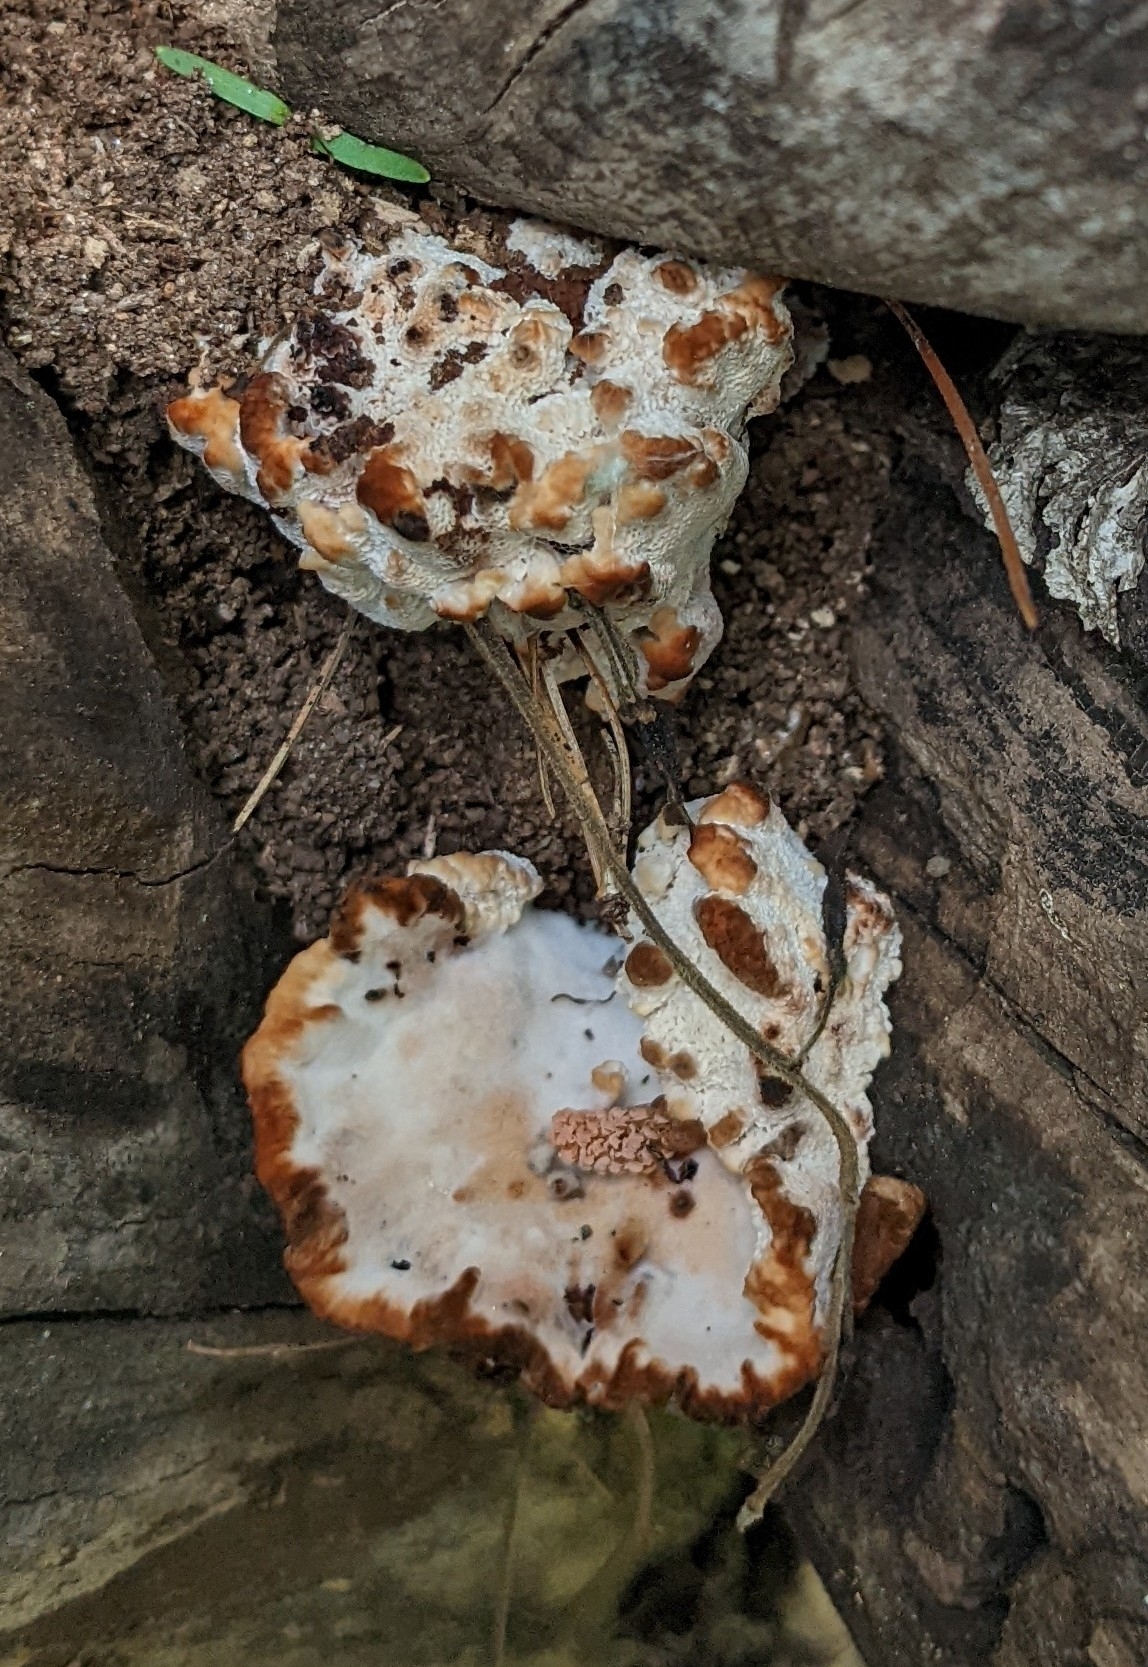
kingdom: Fungi
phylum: Basidiomycota
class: Agaricomycetes
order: Polyporales
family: Podoscyphaceae
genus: Abortiporus
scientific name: Abortiporus biennis
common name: Blushing rosette
